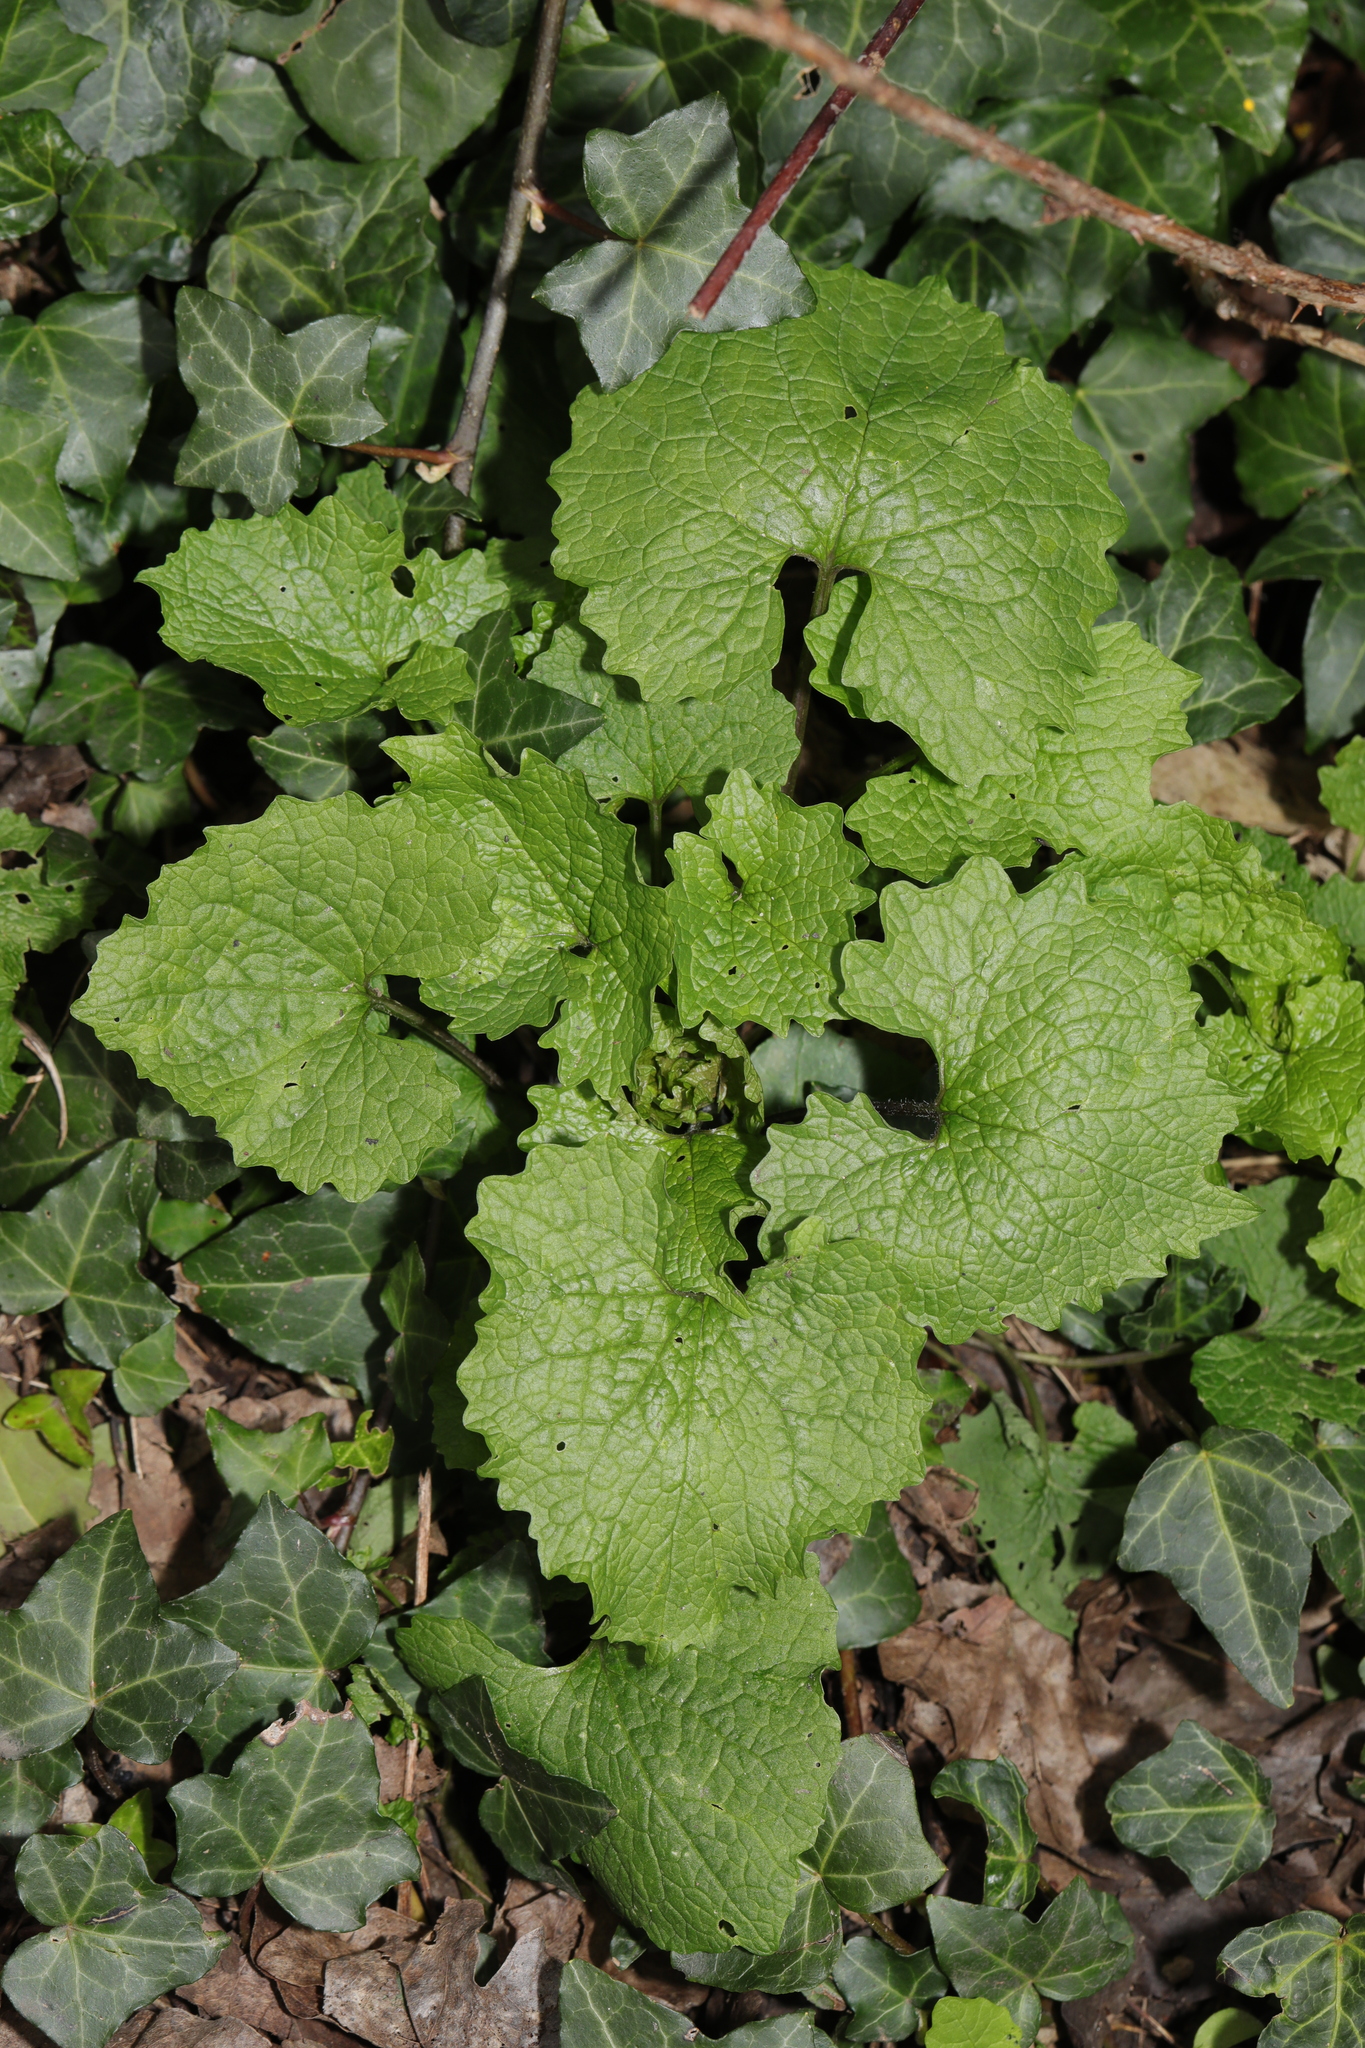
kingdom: Plantae
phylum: Tracheophyta
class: Magnoliopsida
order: Brassicales
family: Brassicaceae
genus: Alliaria
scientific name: Alliaria petiolata
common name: Garlic mustard
